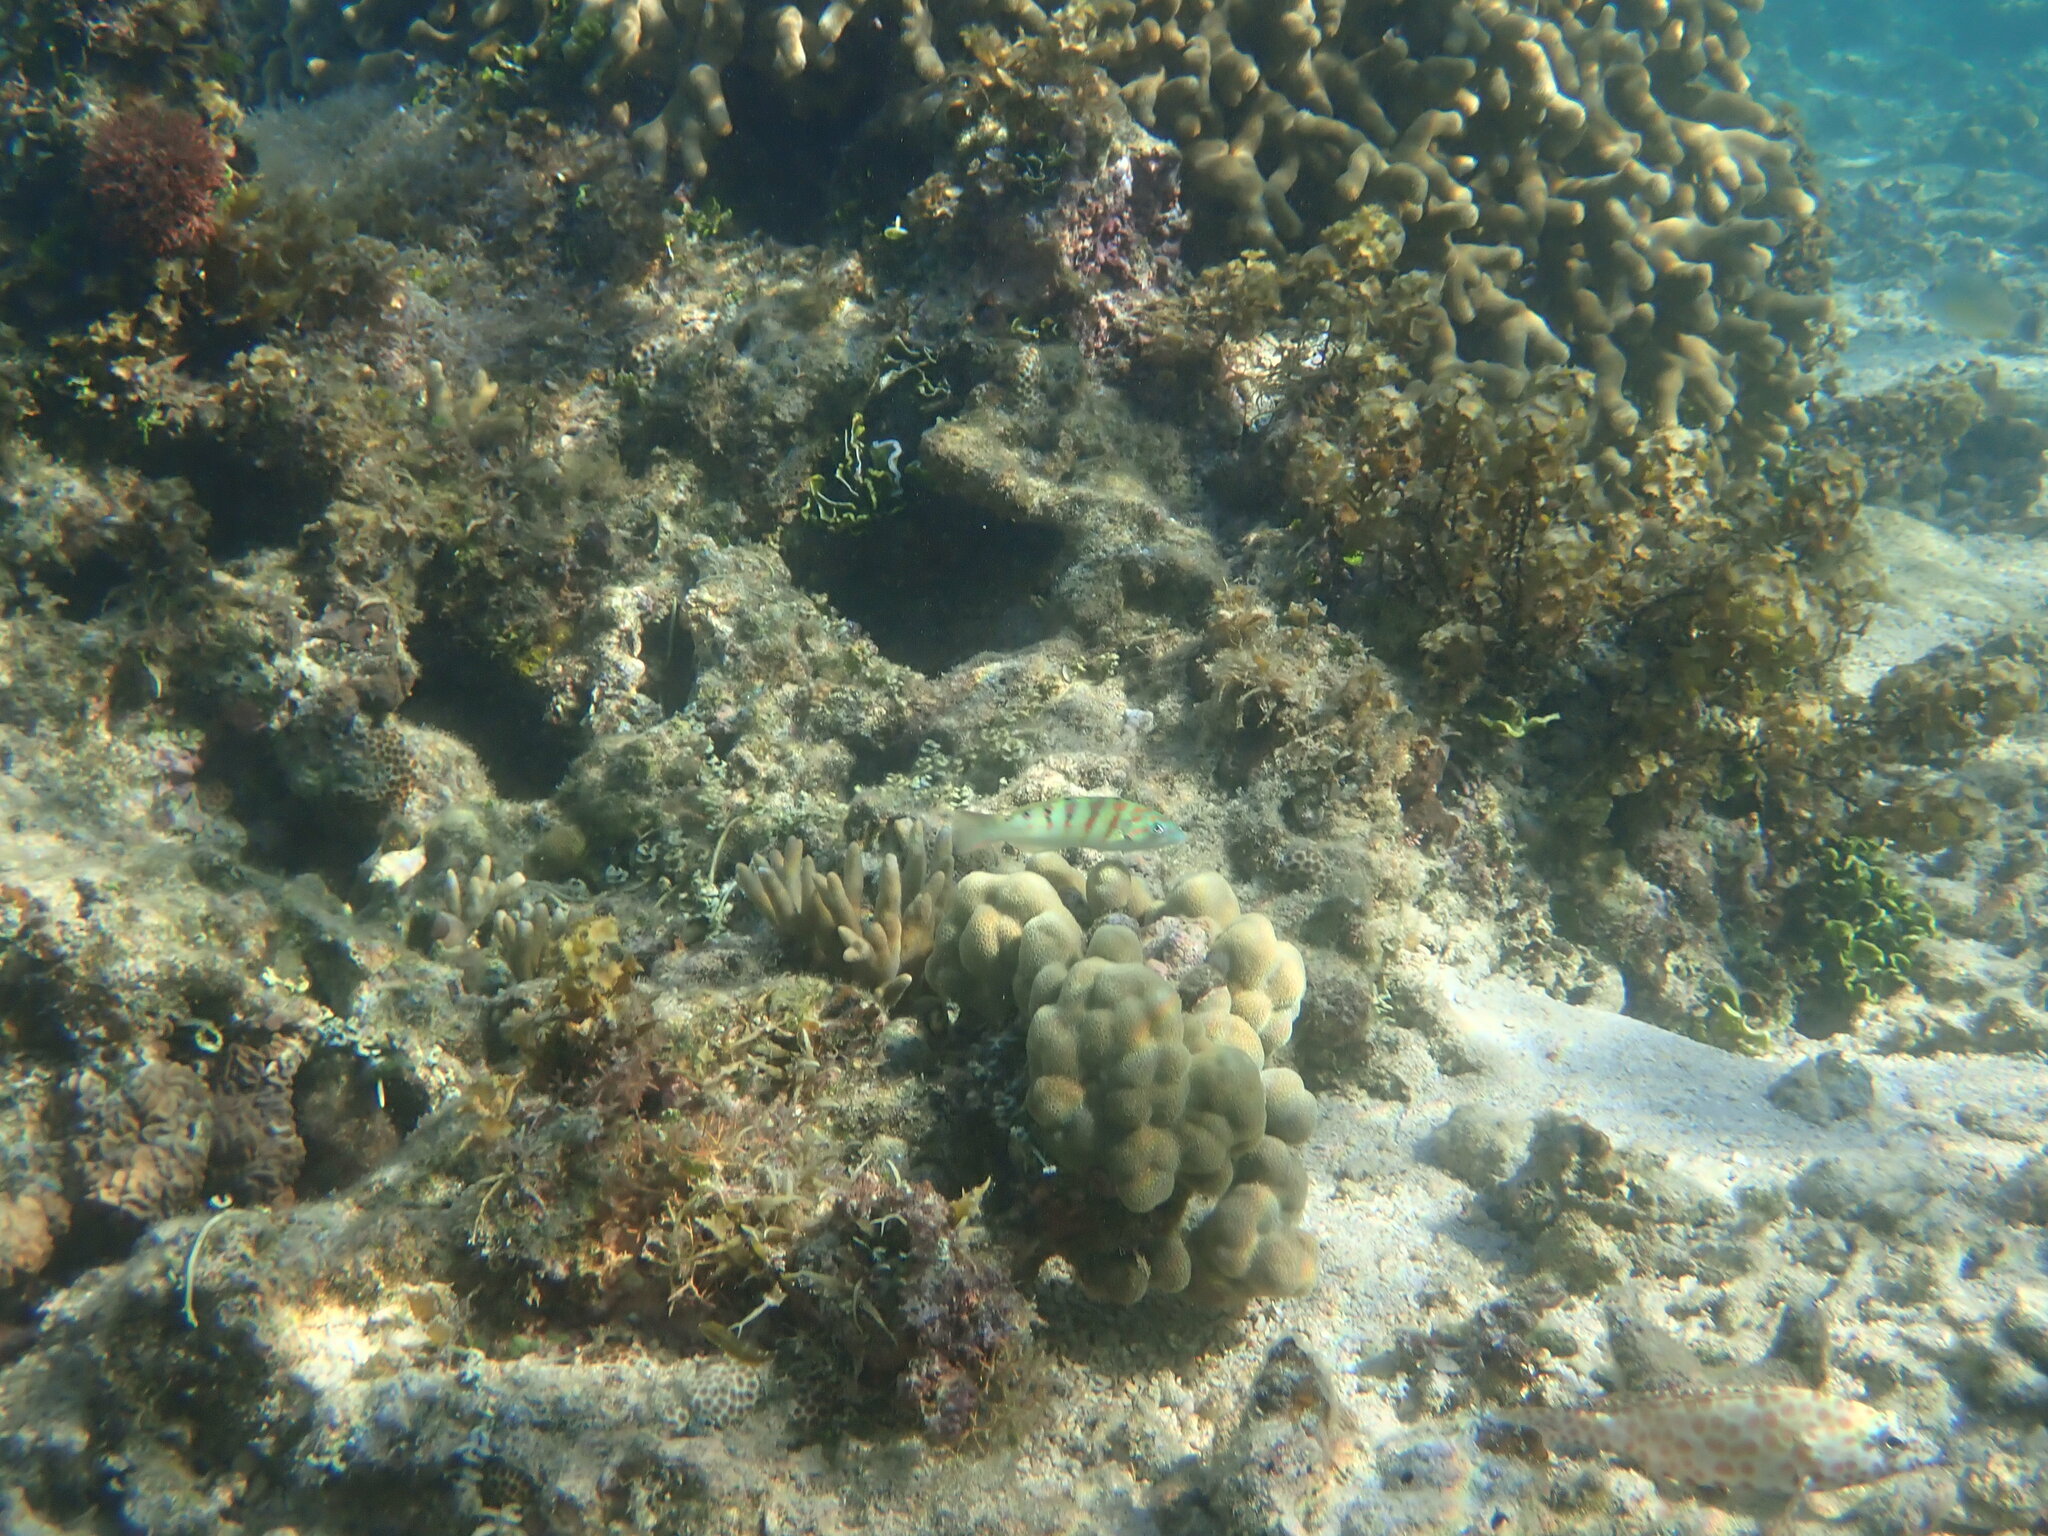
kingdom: Animalia
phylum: Chordata
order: Perciformes
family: Labridae
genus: Thalassoma
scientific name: Thalassoma hardwicke
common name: Sixbar wrasse
